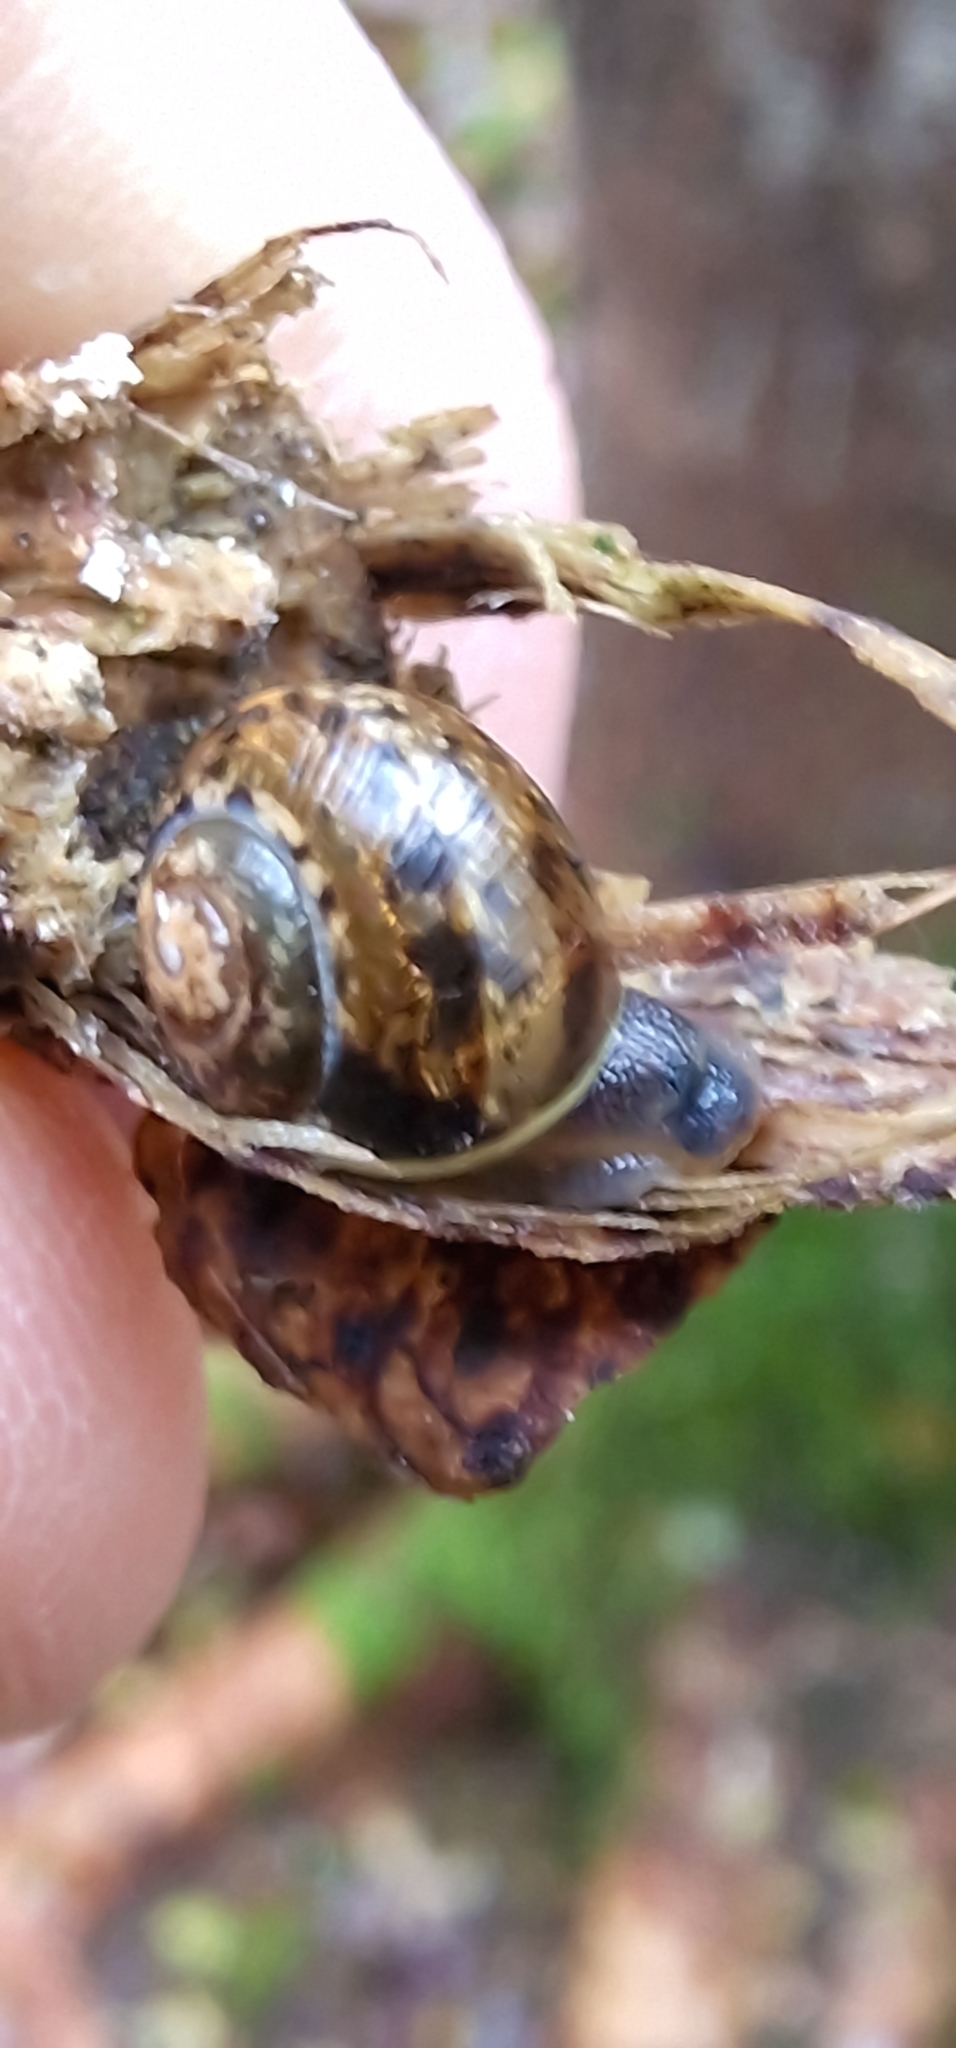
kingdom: Animalia
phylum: Mollusca
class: Gastropoda
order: Stylommatophora
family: Helicidae
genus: Arianta
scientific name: Arianta arbustorum
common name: Copse snail
